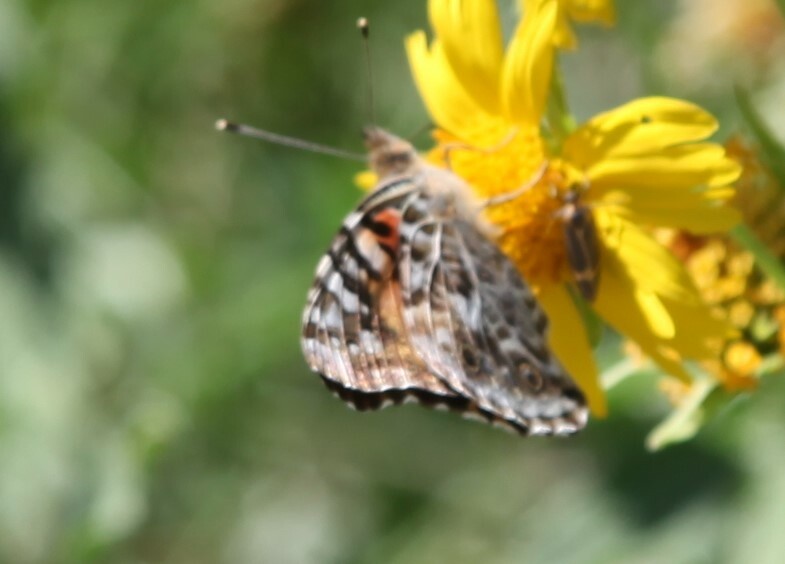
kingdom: Animalia
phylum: Arthropoda
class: Insecta
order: Lepidoptera
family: Nymphalidae
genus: Vanessa
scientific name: Vanessa cardui
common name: Painted lady
